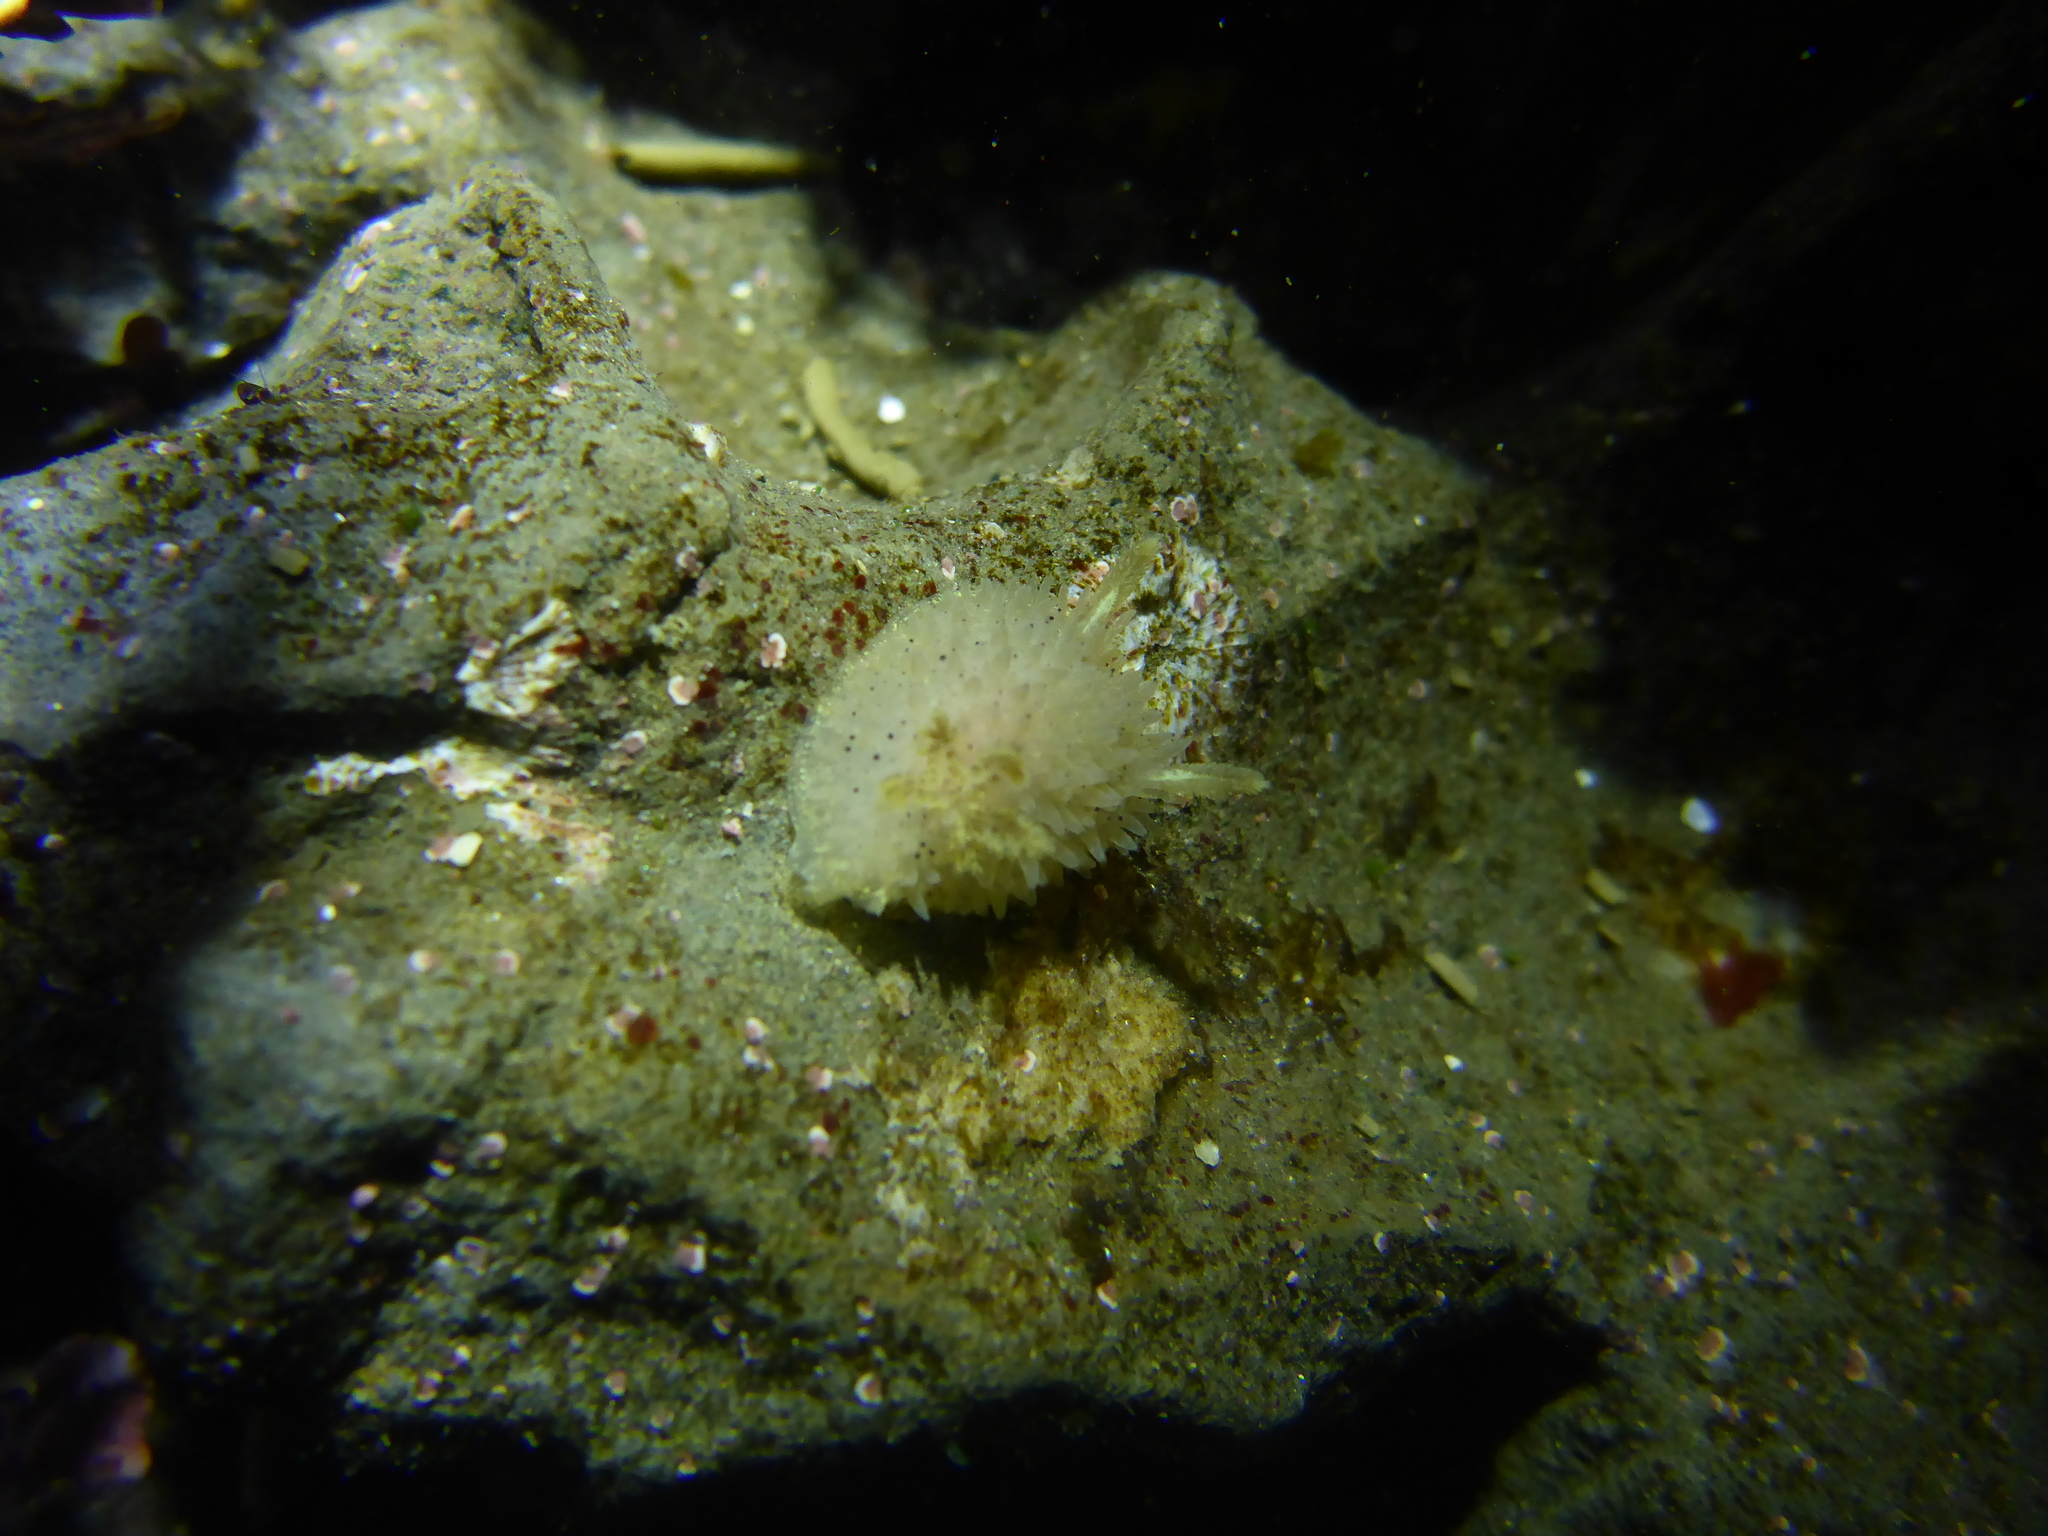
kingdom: Animalia
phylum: Mollusca
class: Gastropoda
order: Nudibranchia
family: Onchidorididae
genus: Acanthodoris
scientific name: Acanthodoris rhodoceras
